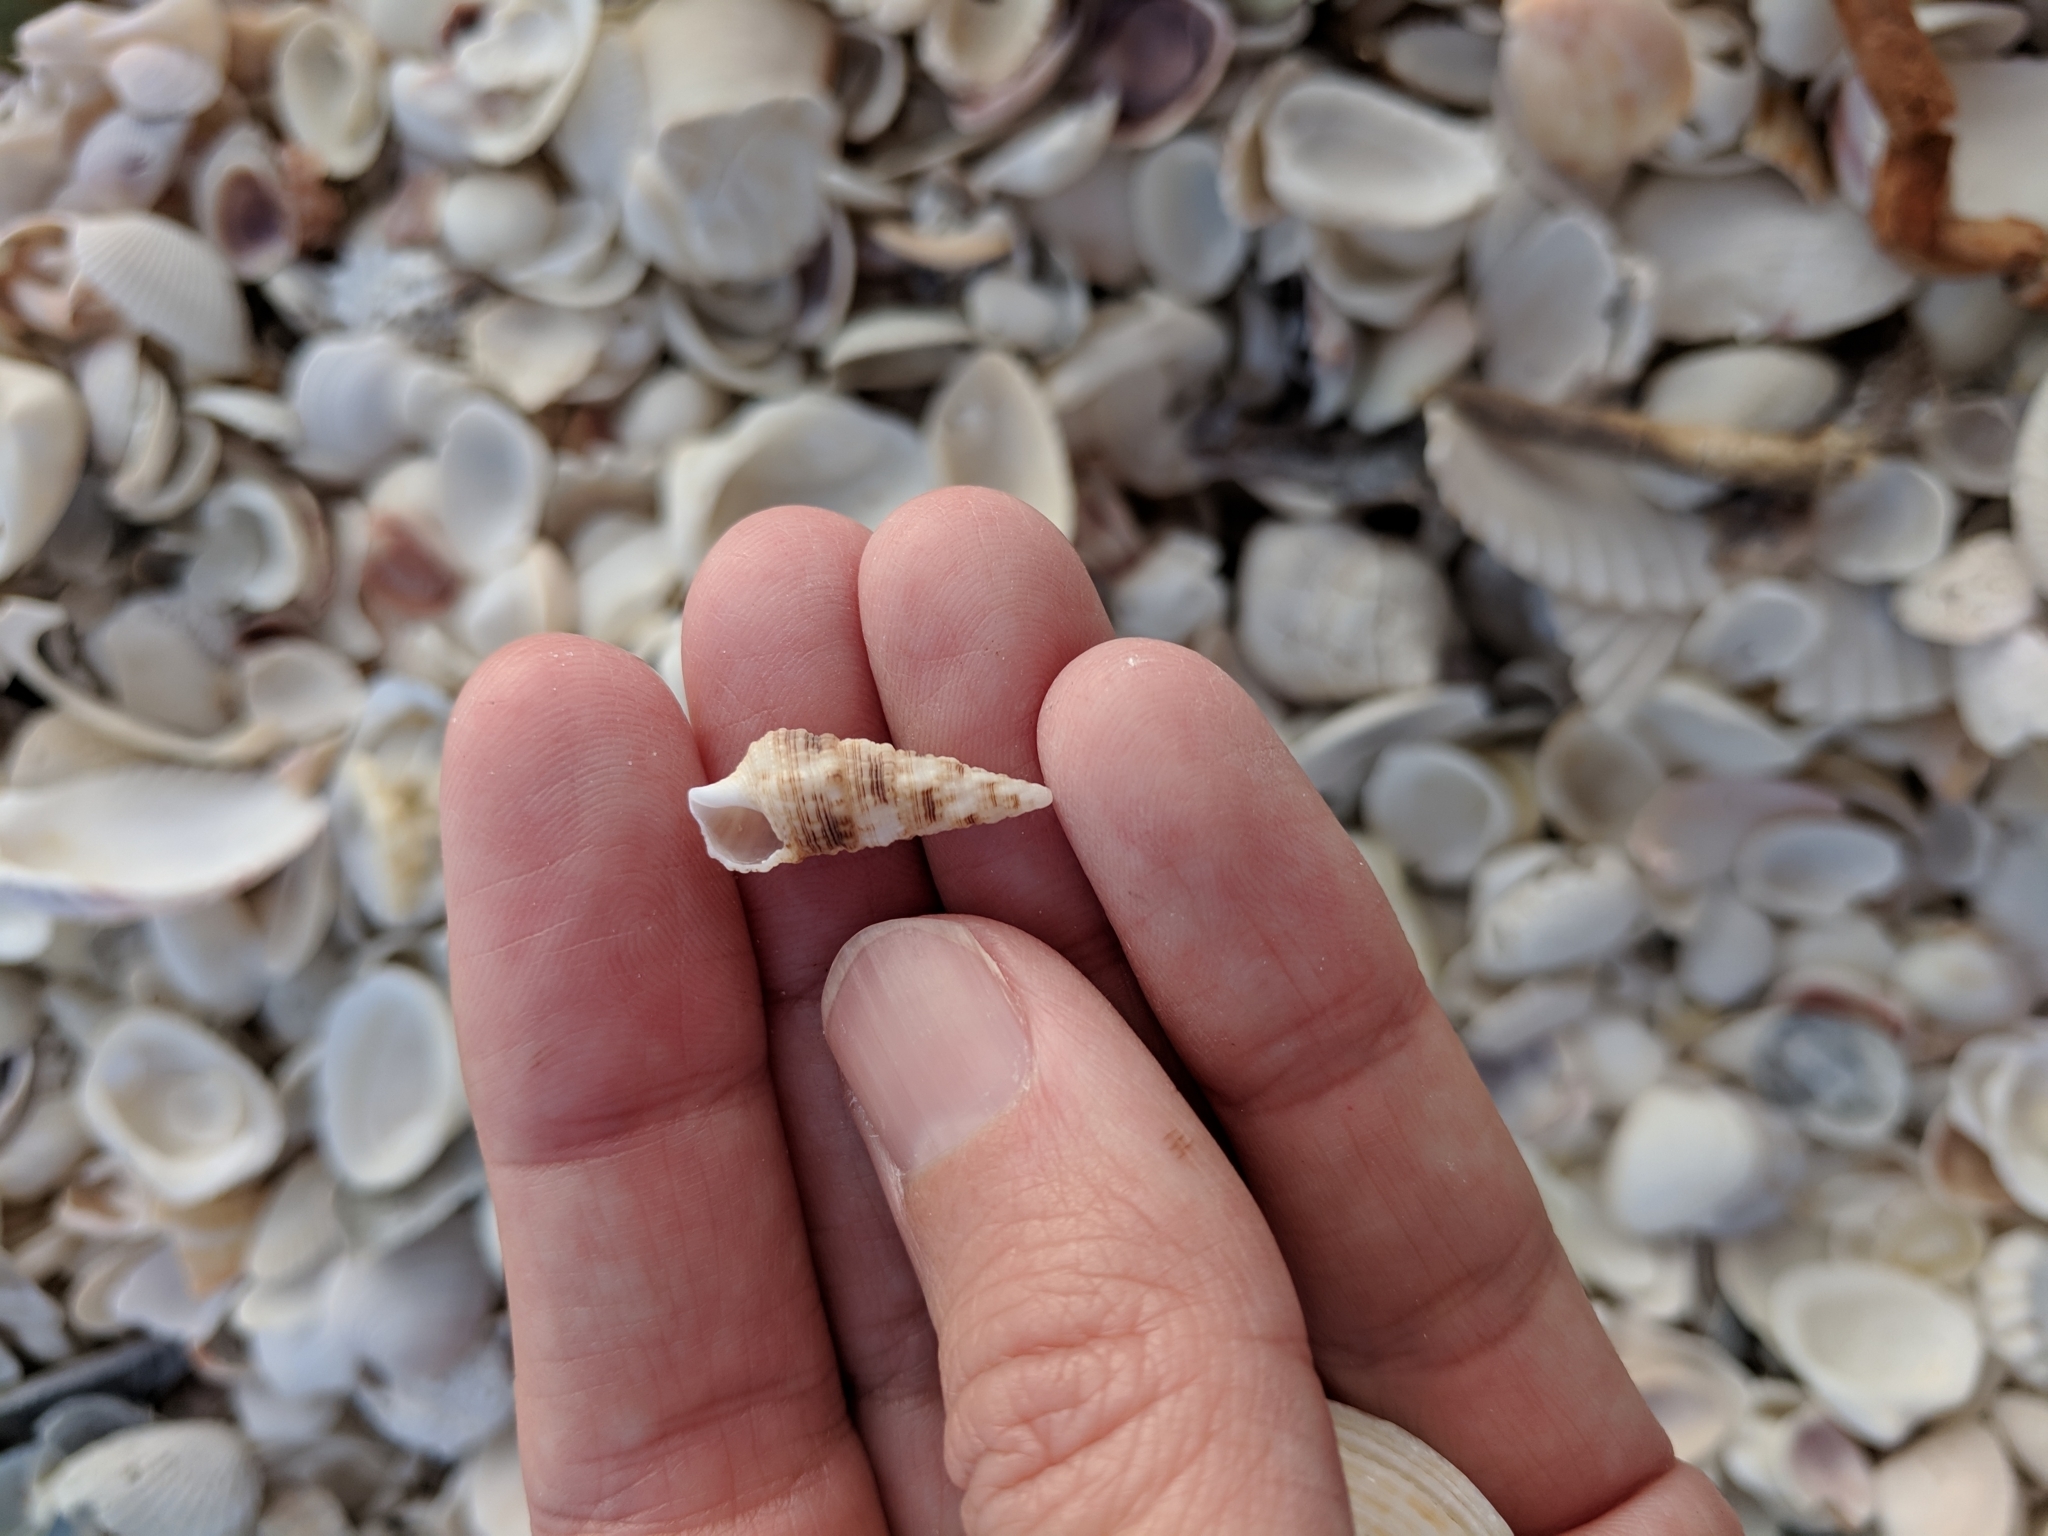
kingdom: Animalia
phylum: Mollusca
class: Gastropoda
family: Cerithiidae
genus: Cerithium
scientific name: Cerithium atratum
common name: Dark cerith
